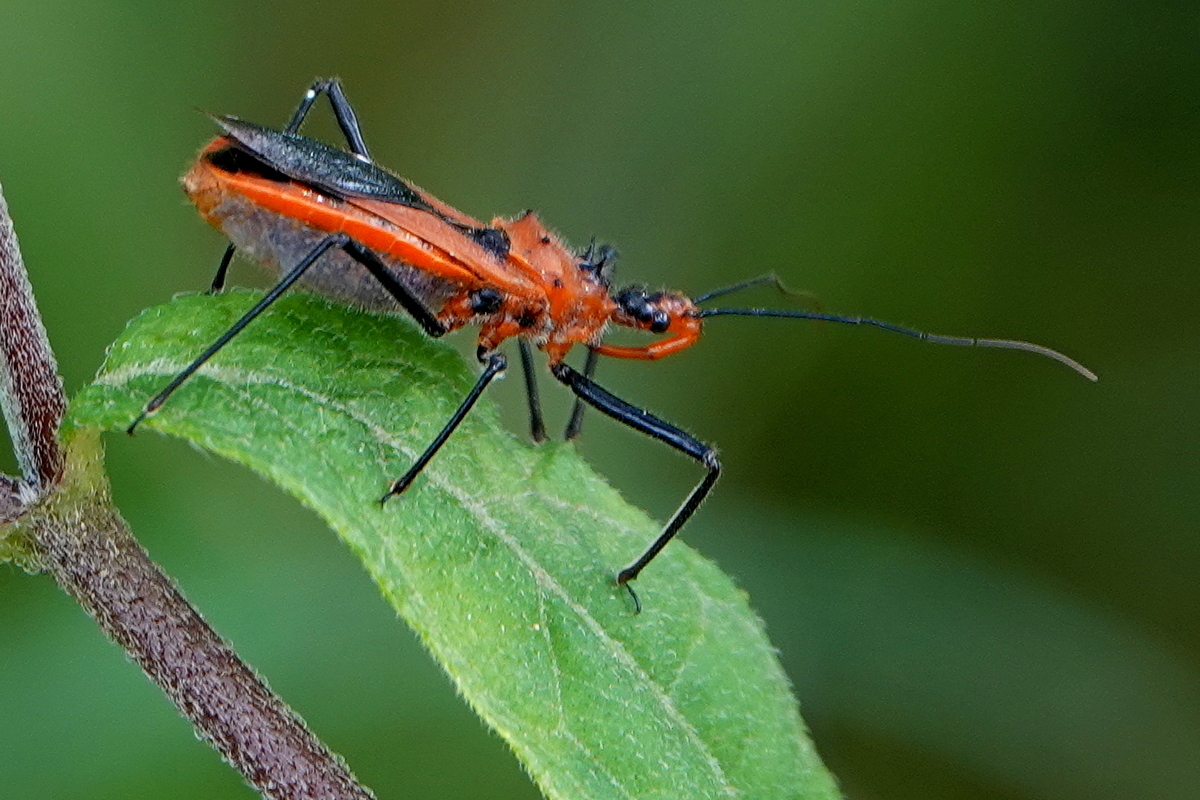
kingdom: Animalia
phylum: Arthropoda
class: Insecta
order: Hemiptera
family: Reduviidae
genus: Gminatus
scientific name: Gminatus australis
